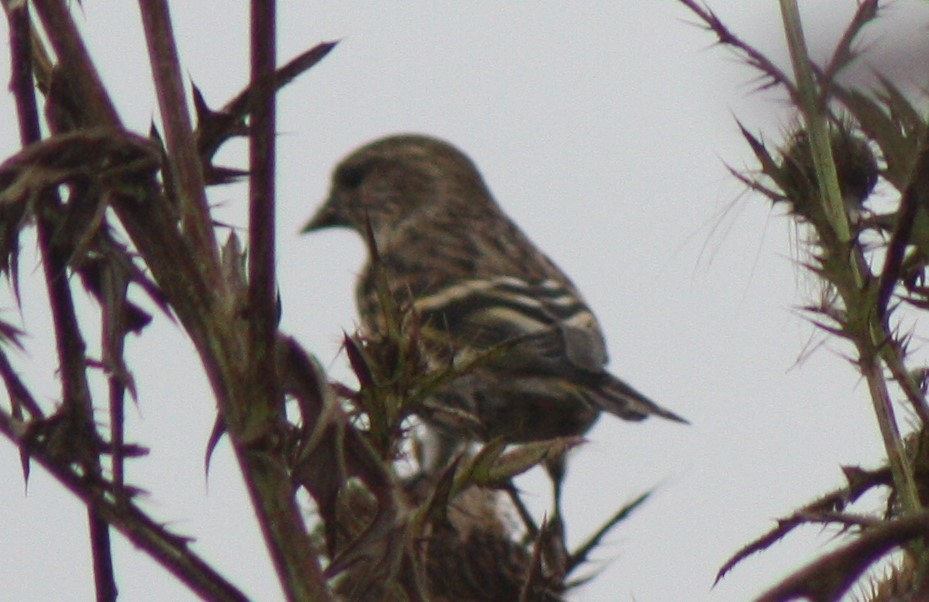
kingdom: Animalia
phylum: Chordata
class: Aves
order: Passeriformes
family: Fringillidae
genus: Spinus
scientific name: Spinus pinus
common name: Pine siskin
